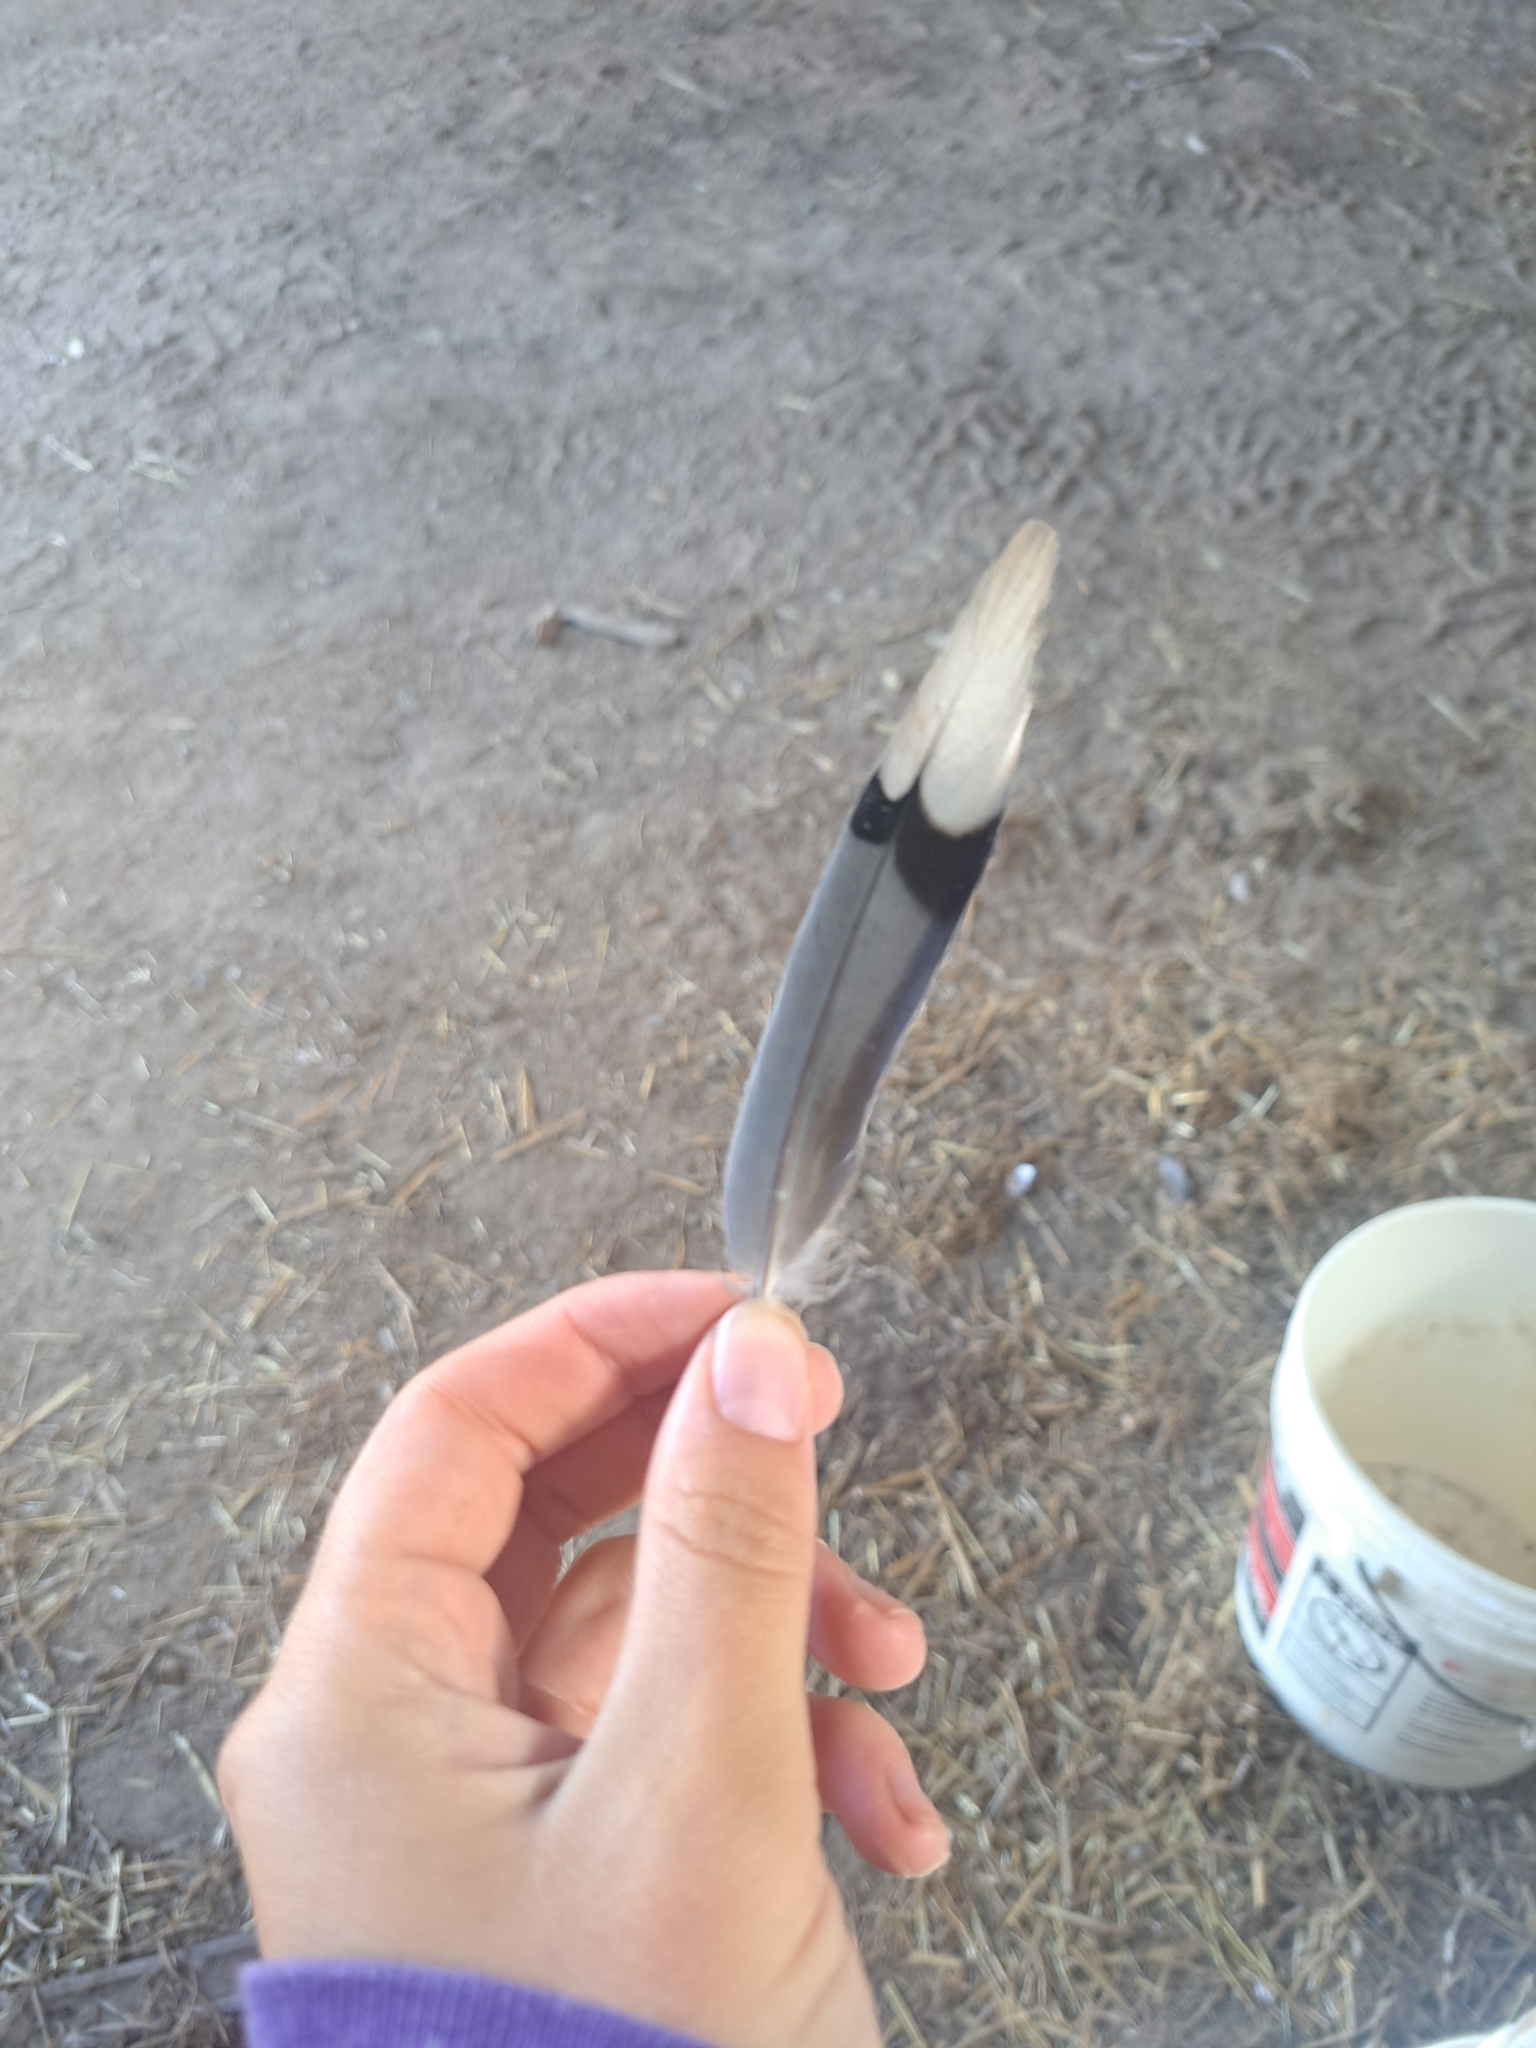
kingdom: Animalia
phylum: Chordata
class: Aves
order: Columbiformes
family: Columbidae
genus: Zenaida
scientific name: Zenaida macroura
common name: Mourning dove
